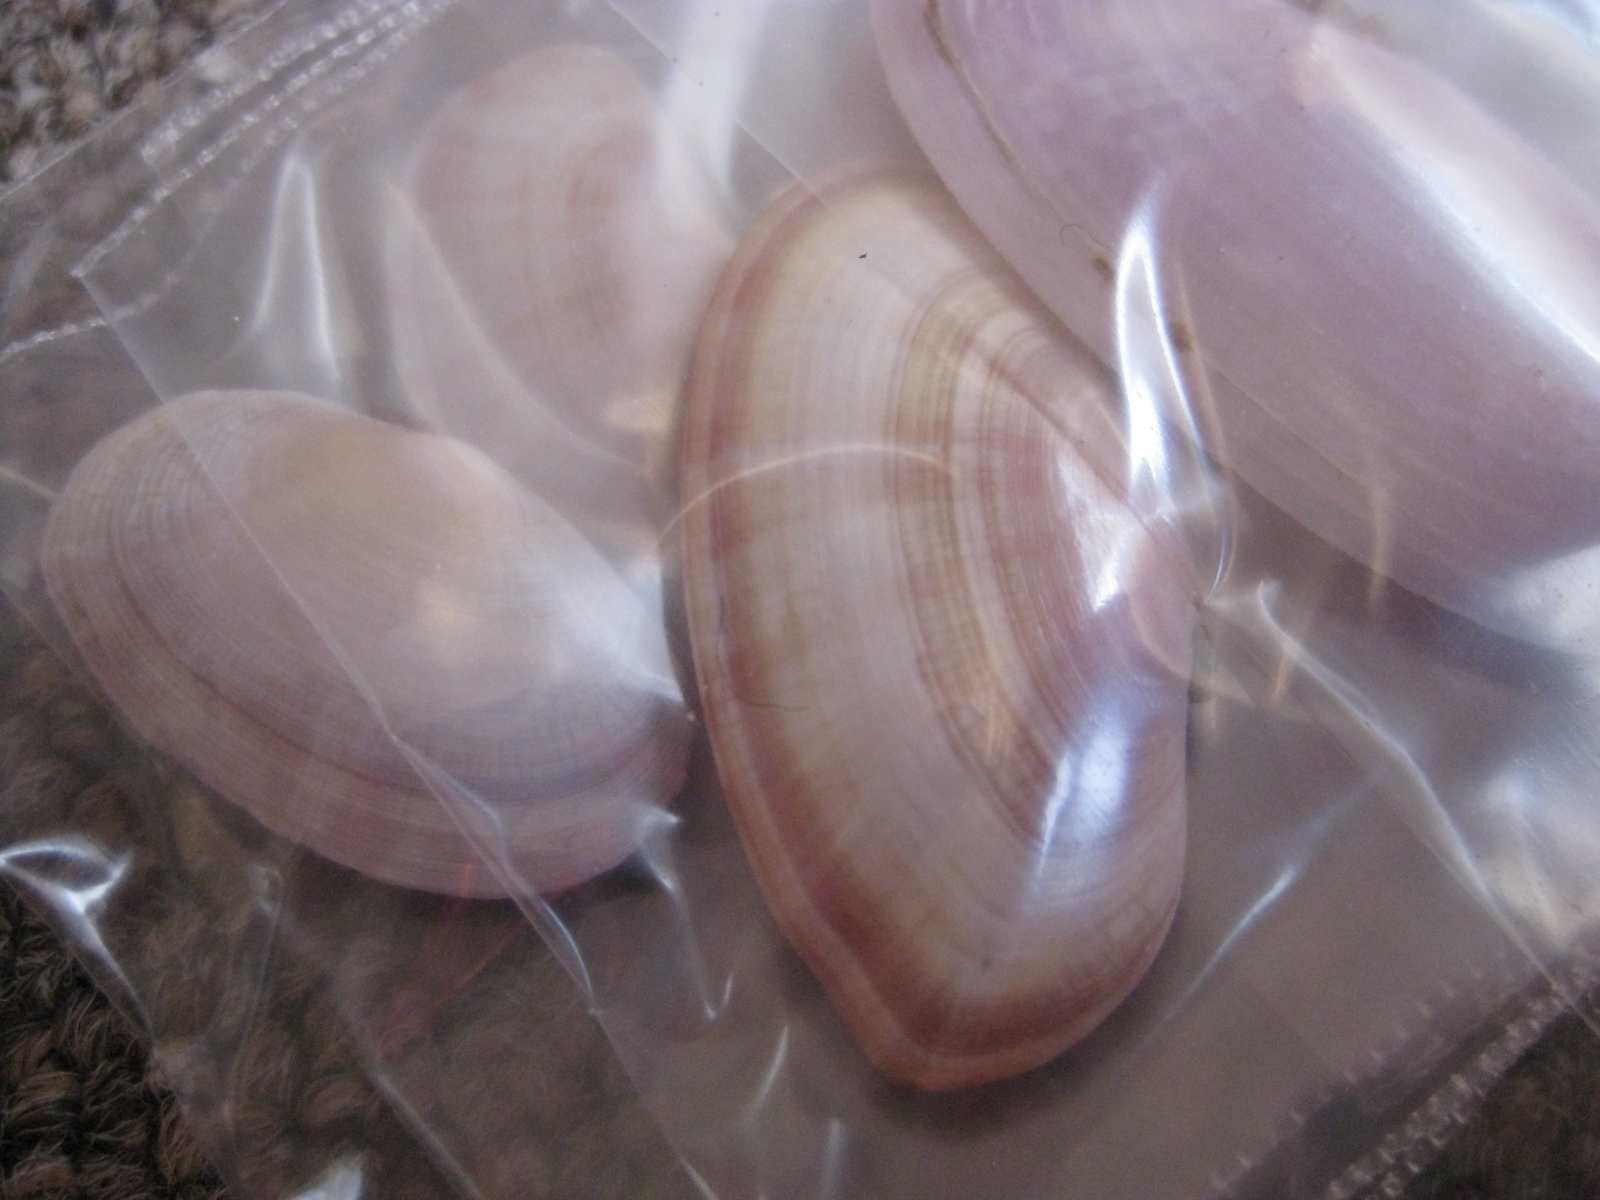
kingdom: Animalia
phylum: Mollusca
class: Bivalvia
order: Cardiida
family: Psammobiidae
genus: Gari
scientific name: Gari stangeri
